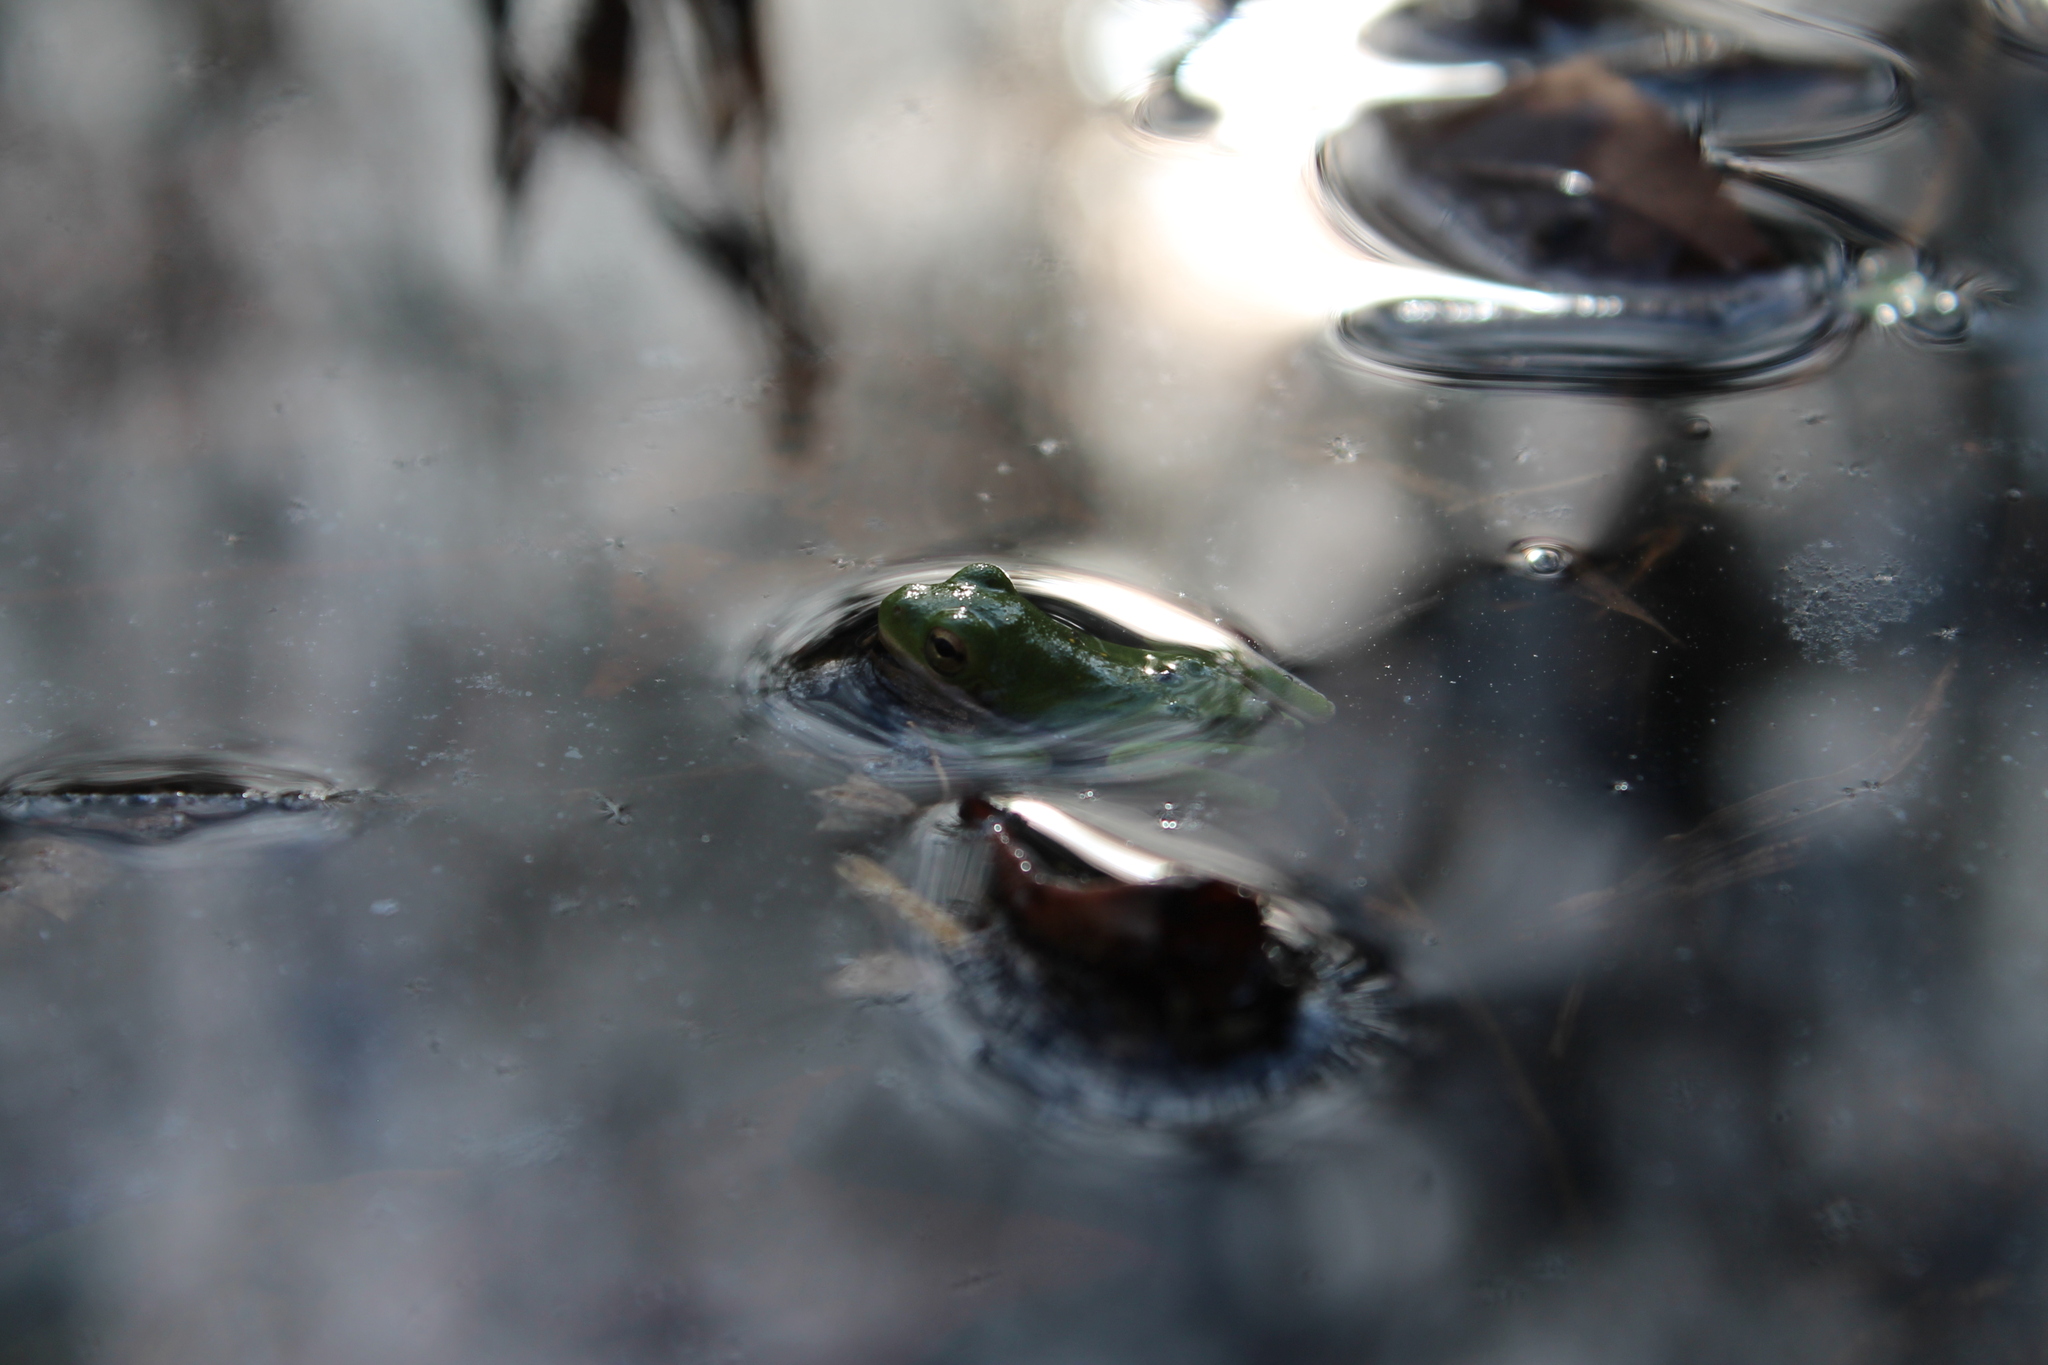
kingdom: Animalia
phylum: Chordata
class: Amphibia
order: Anura
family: Hylidae
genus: Dryophytes
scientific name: Dryophytes cinereus
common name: Green treefrog
